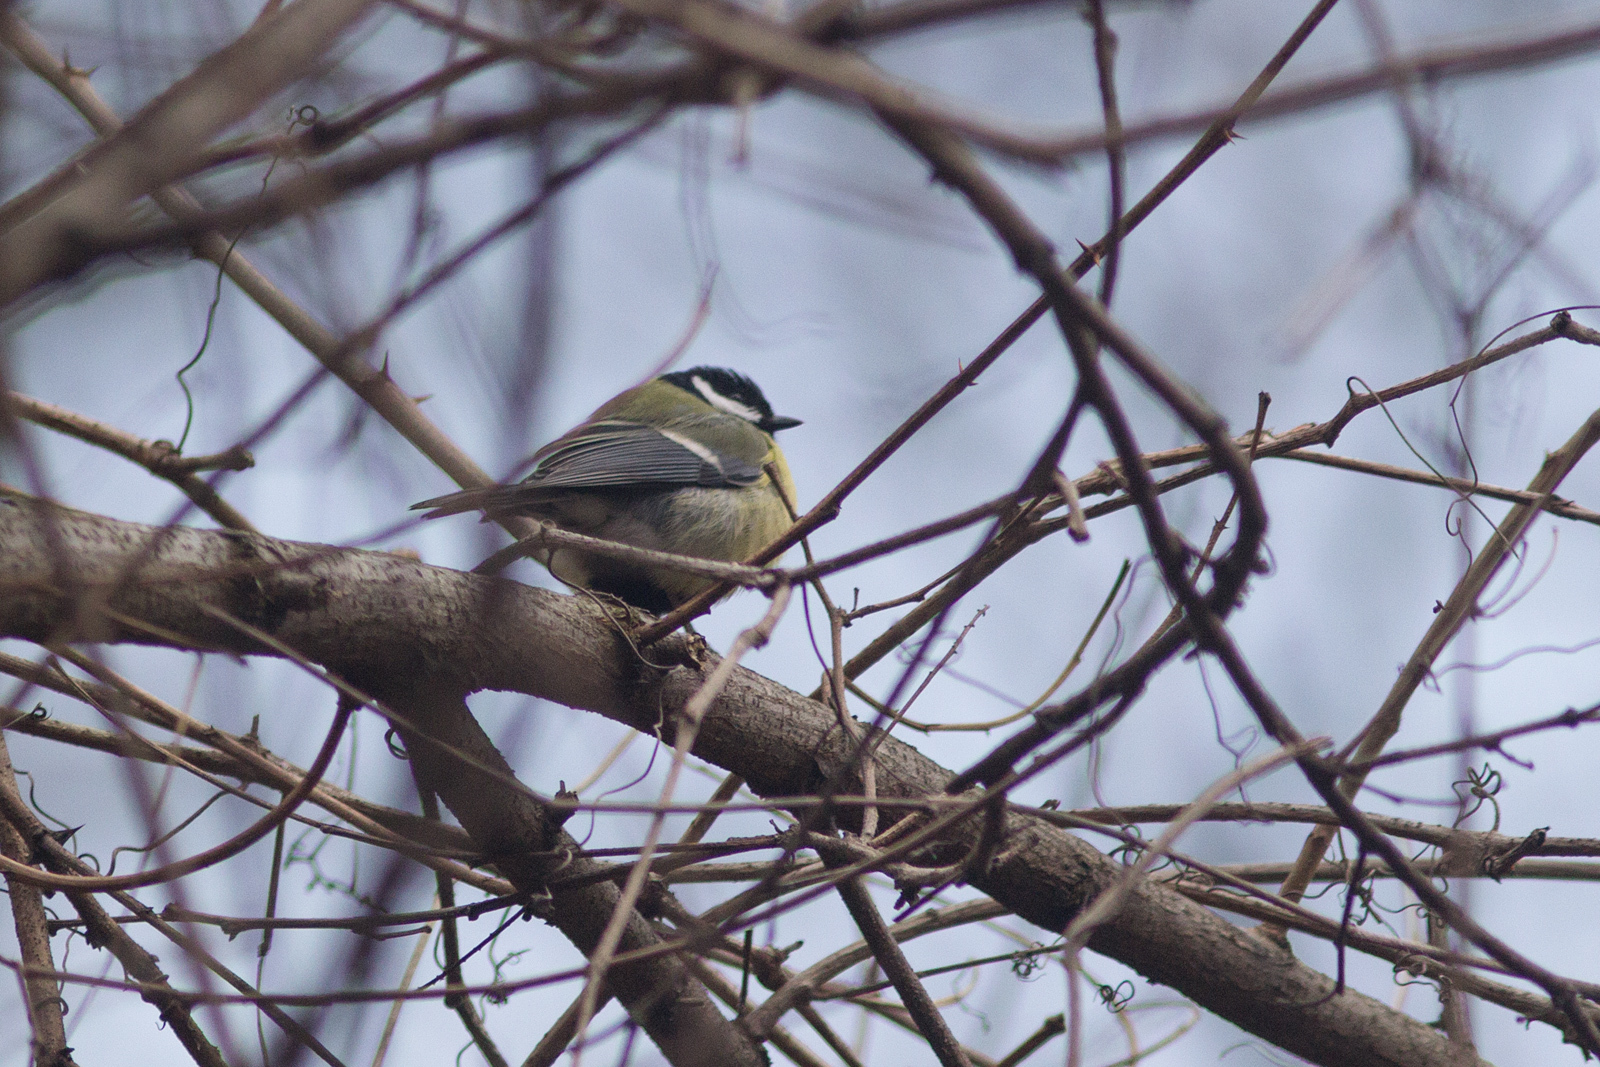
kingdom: Animalia
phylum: Chordata
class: Aves
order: Passeriformes
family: Paridae
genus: Parus
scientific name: Parus major
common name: Great tit
